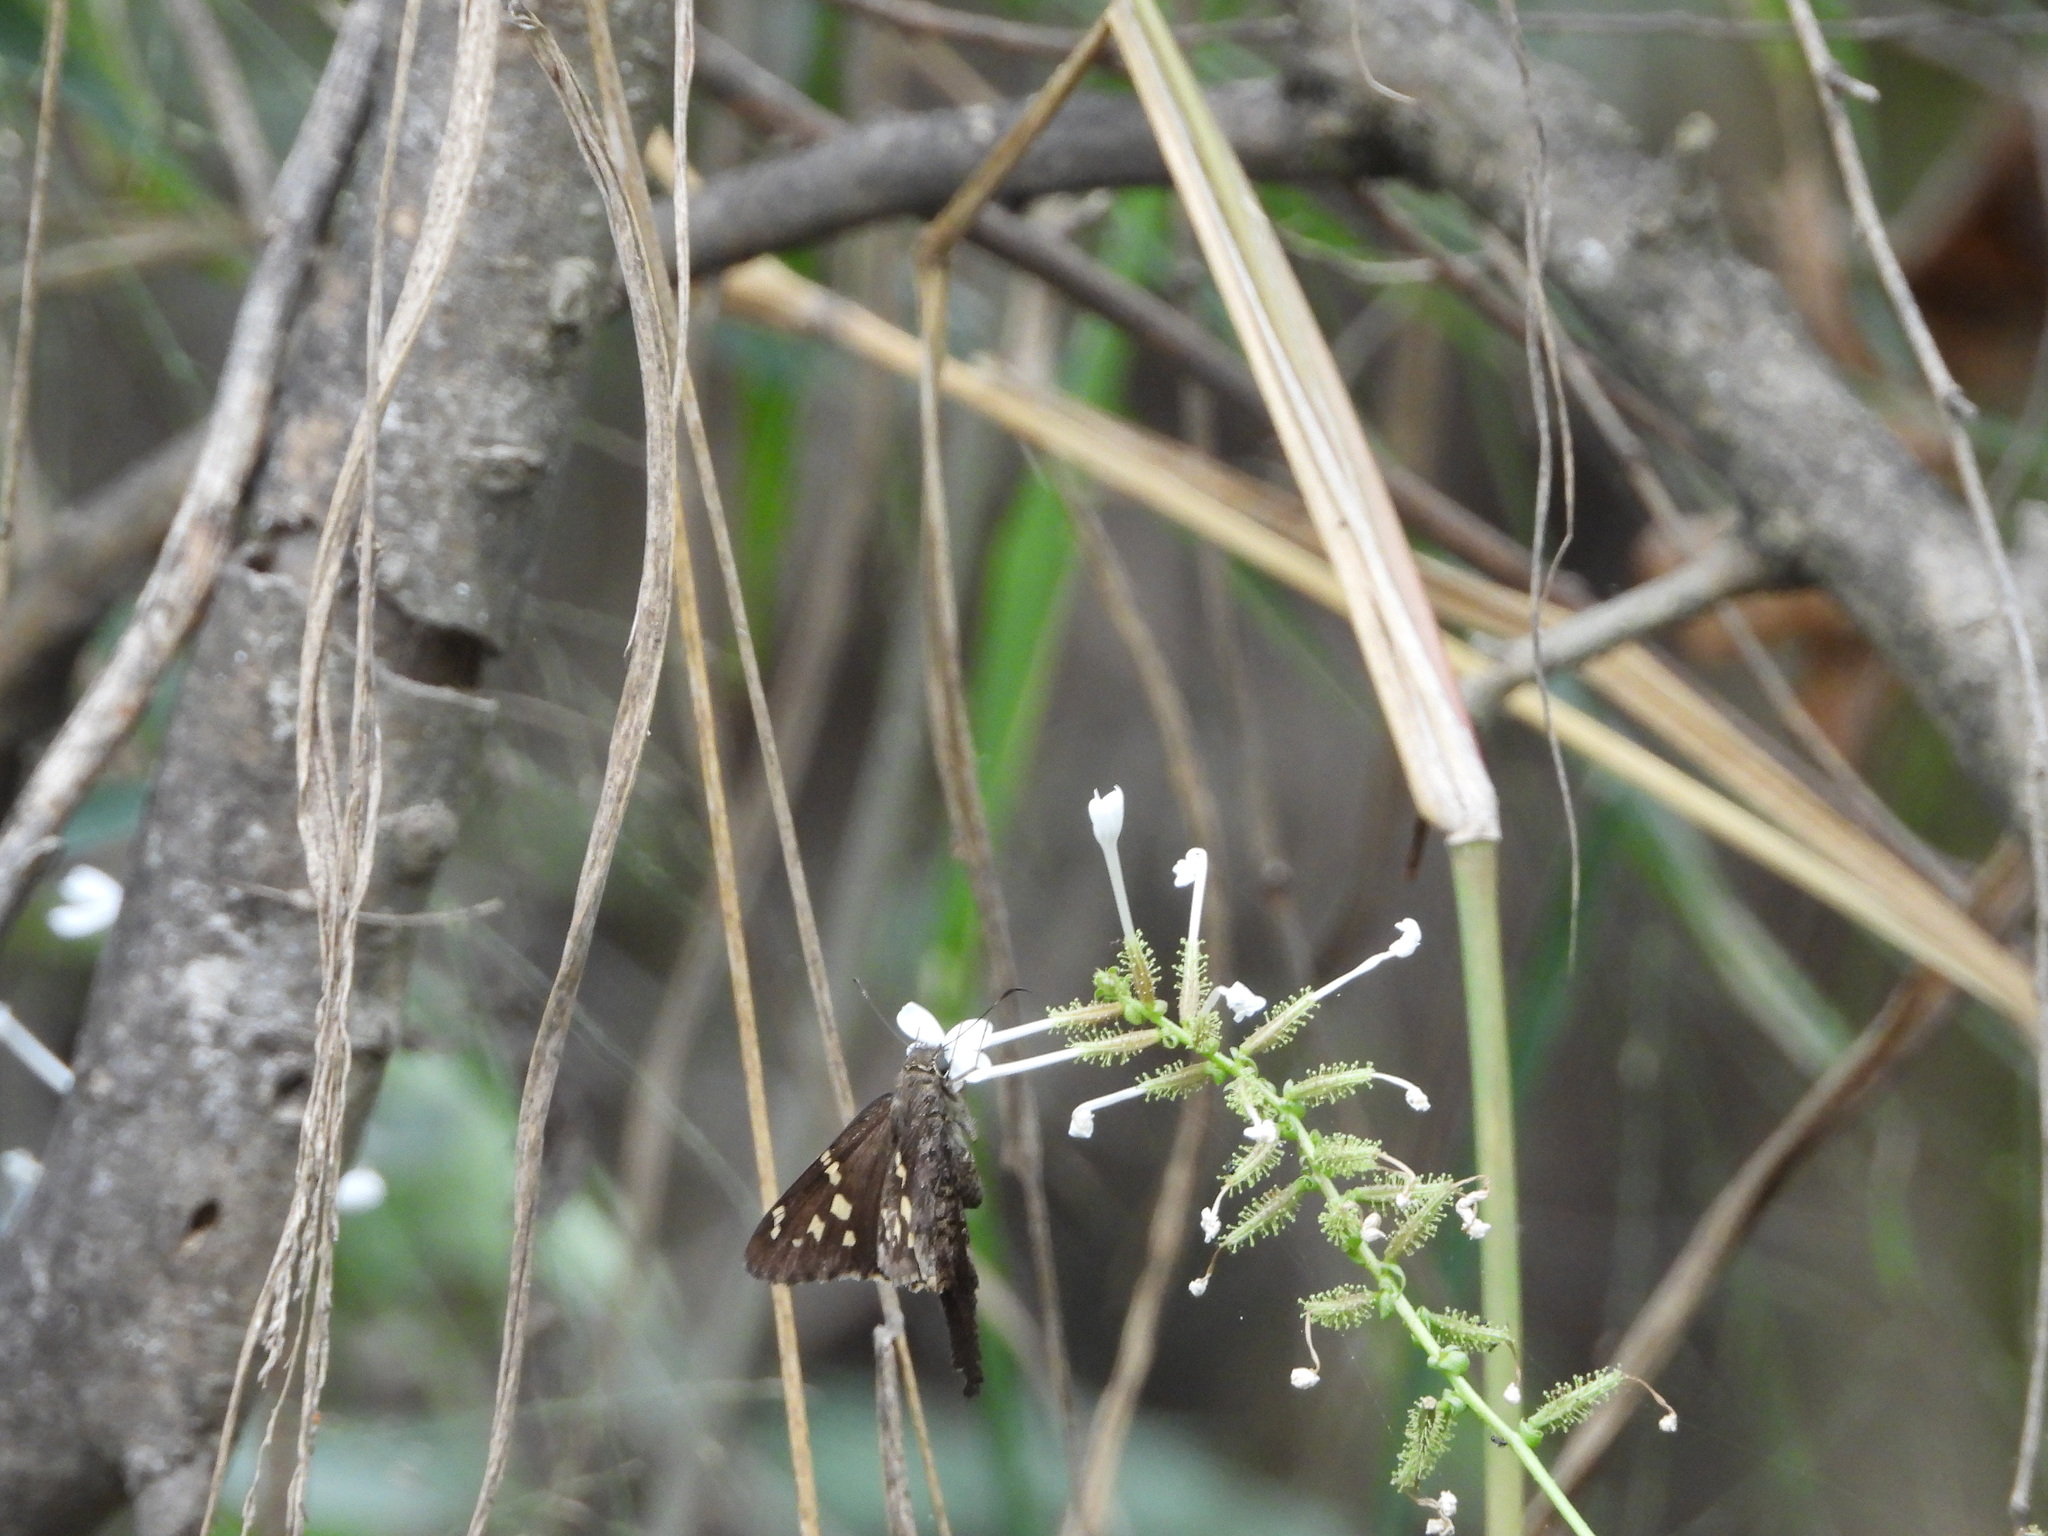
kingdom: Animalia
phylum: Arthropoda
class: Insecta
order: Lepidoptera
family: Hesperiidae
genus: Thorybes
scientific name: Thorybes
